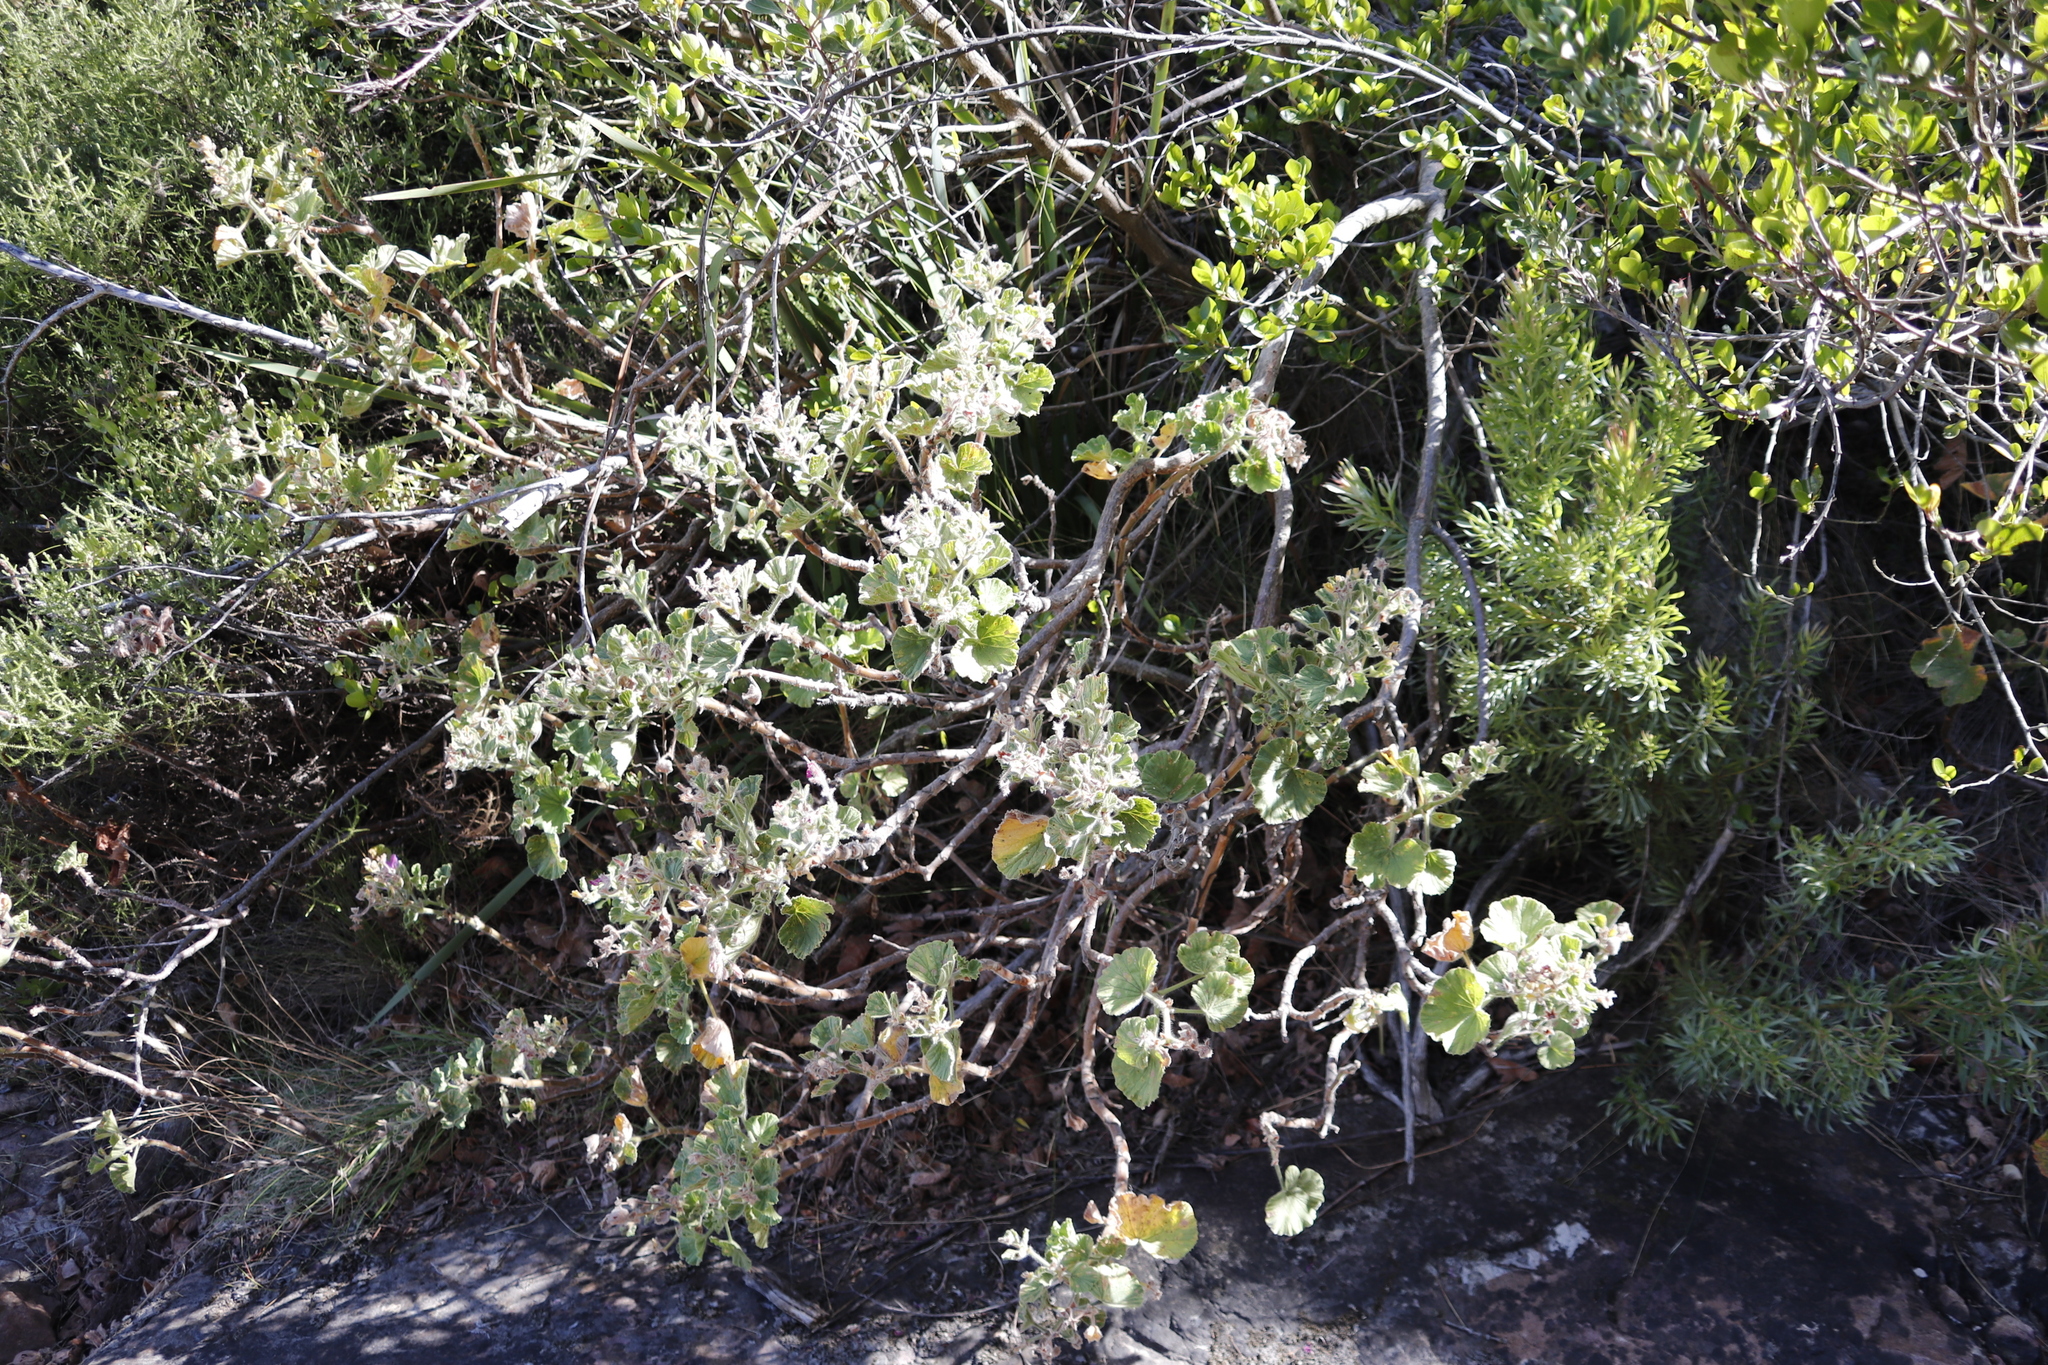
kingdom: Plantae
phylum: Tracheophyta
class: Magnoliopsida
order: Geraniales
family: Geraniaceae
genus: Pelargonium
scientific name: Pelargonium cucullatum
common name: Tree pelargonium
